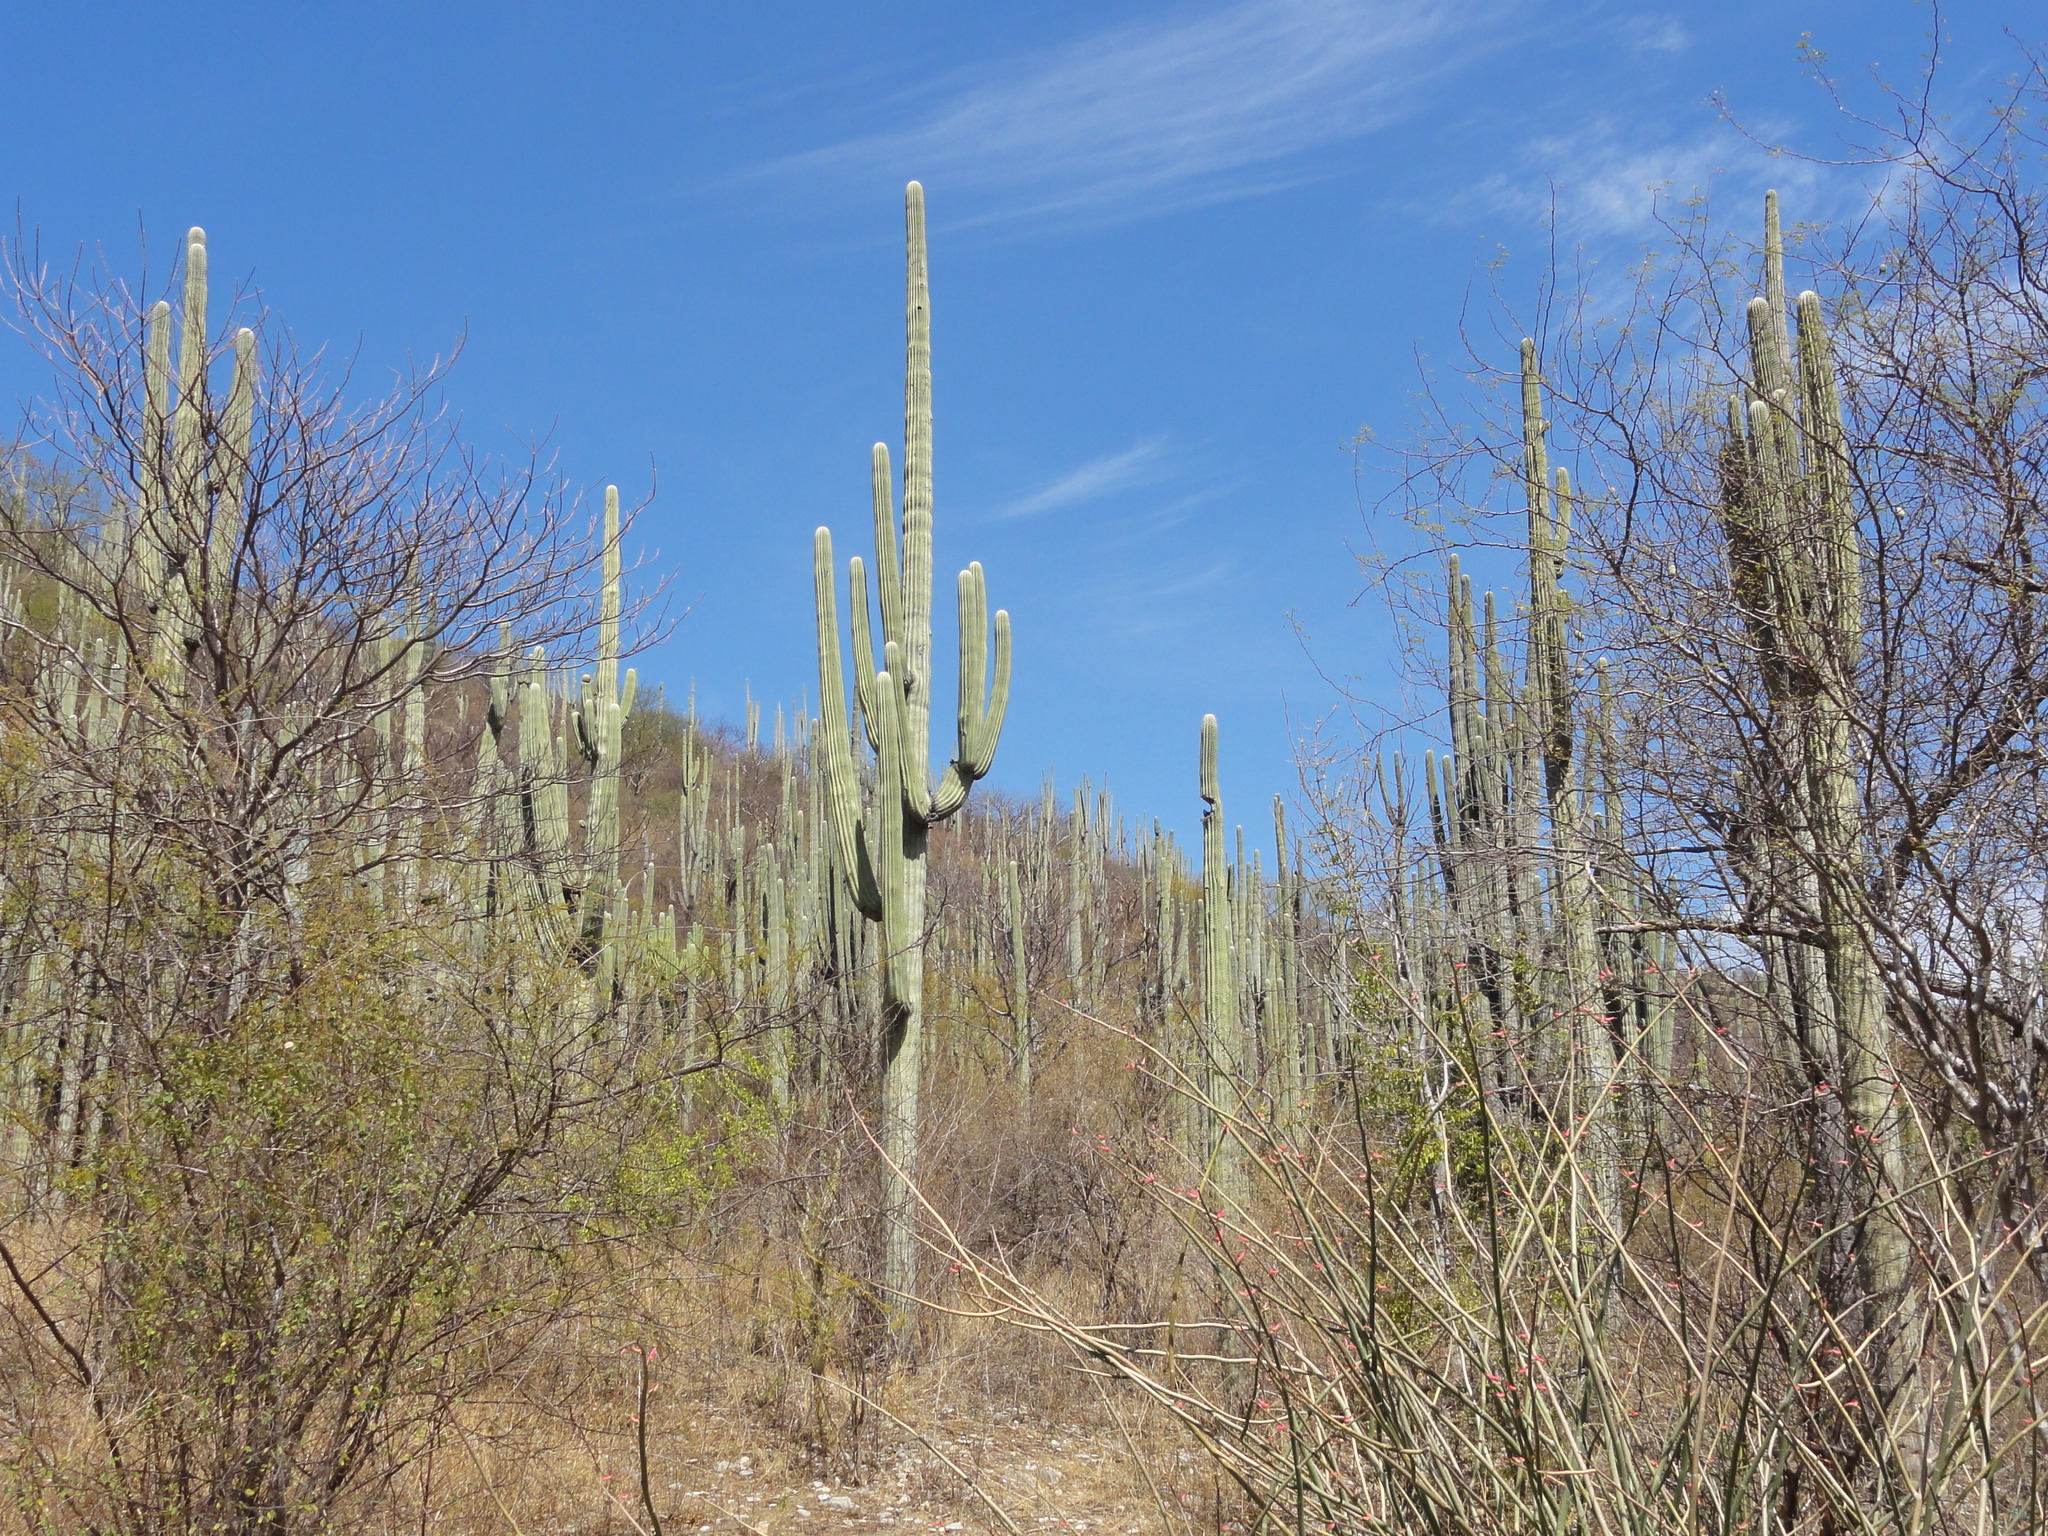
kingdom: Plantae
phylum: Tracheophyta
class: Magnoliopsida
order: Caryophyllales
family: Cactaceae
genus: Cephalocereus
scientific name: Cephalocereus tetetzo
